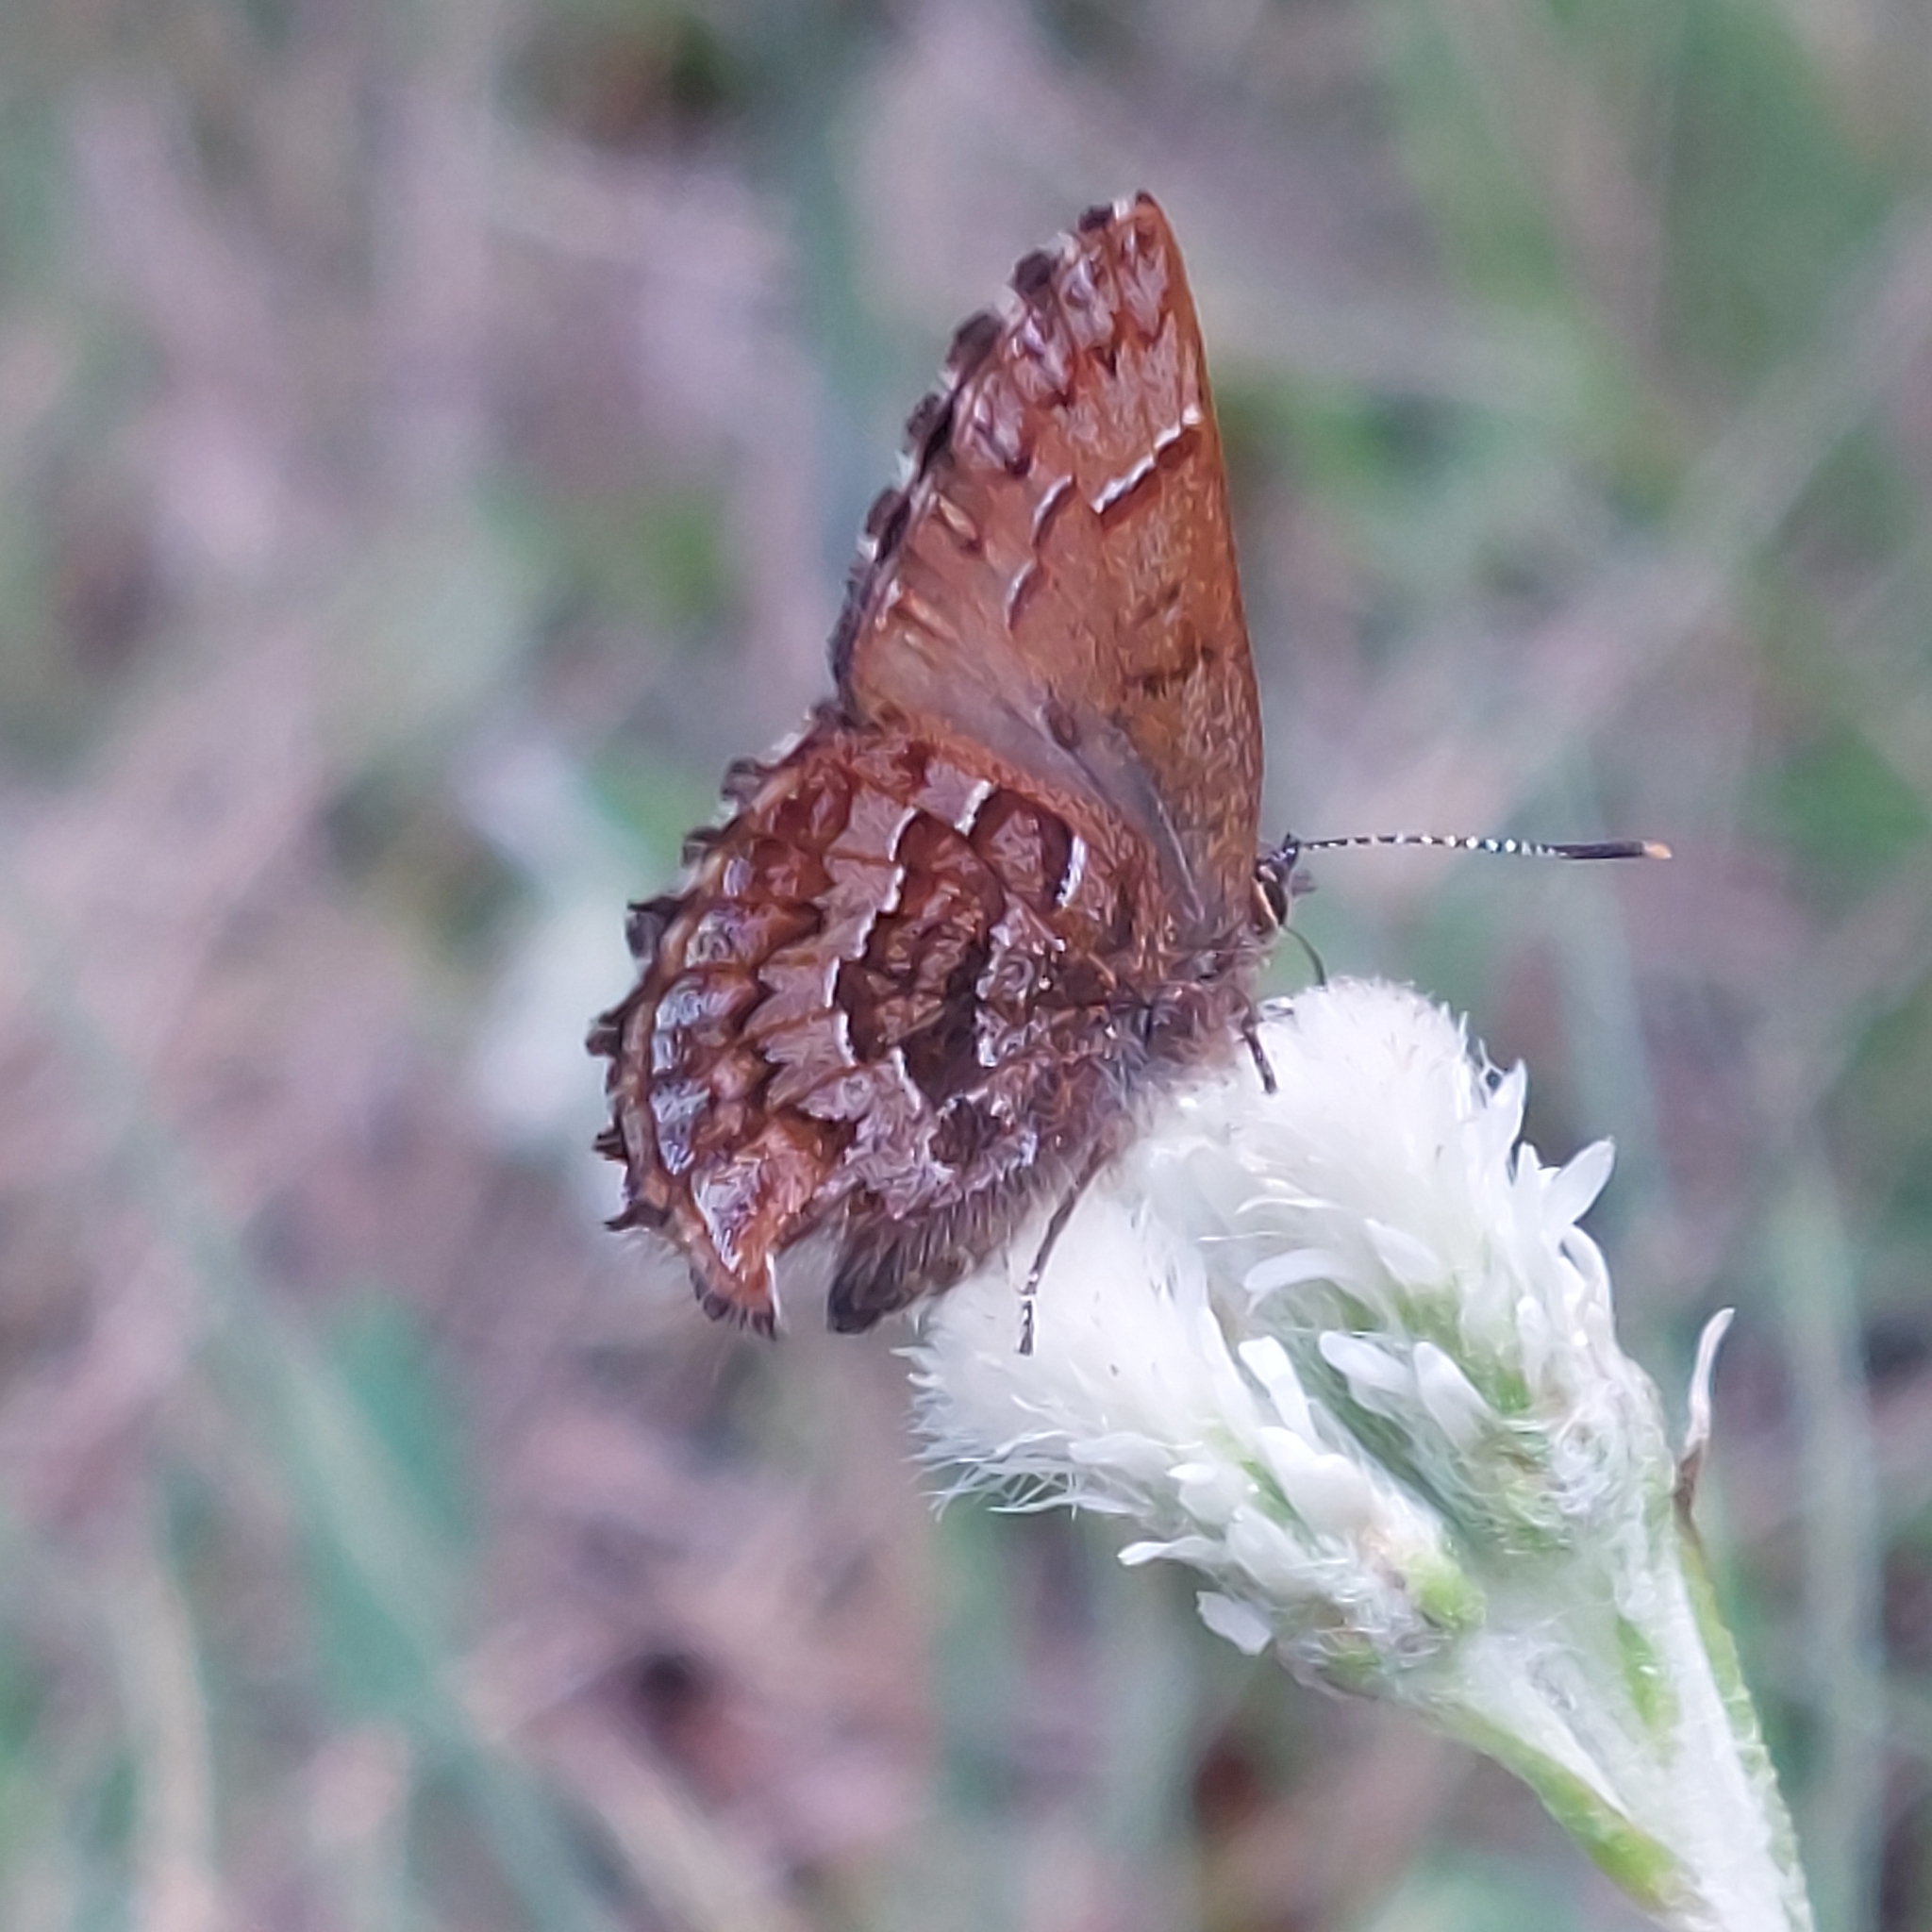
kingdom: Animalia
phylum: Arthropoda
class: Insecta
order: Lepidoptera
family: Lycaenidae
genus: Incisalia
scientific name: Incisalia niphon
